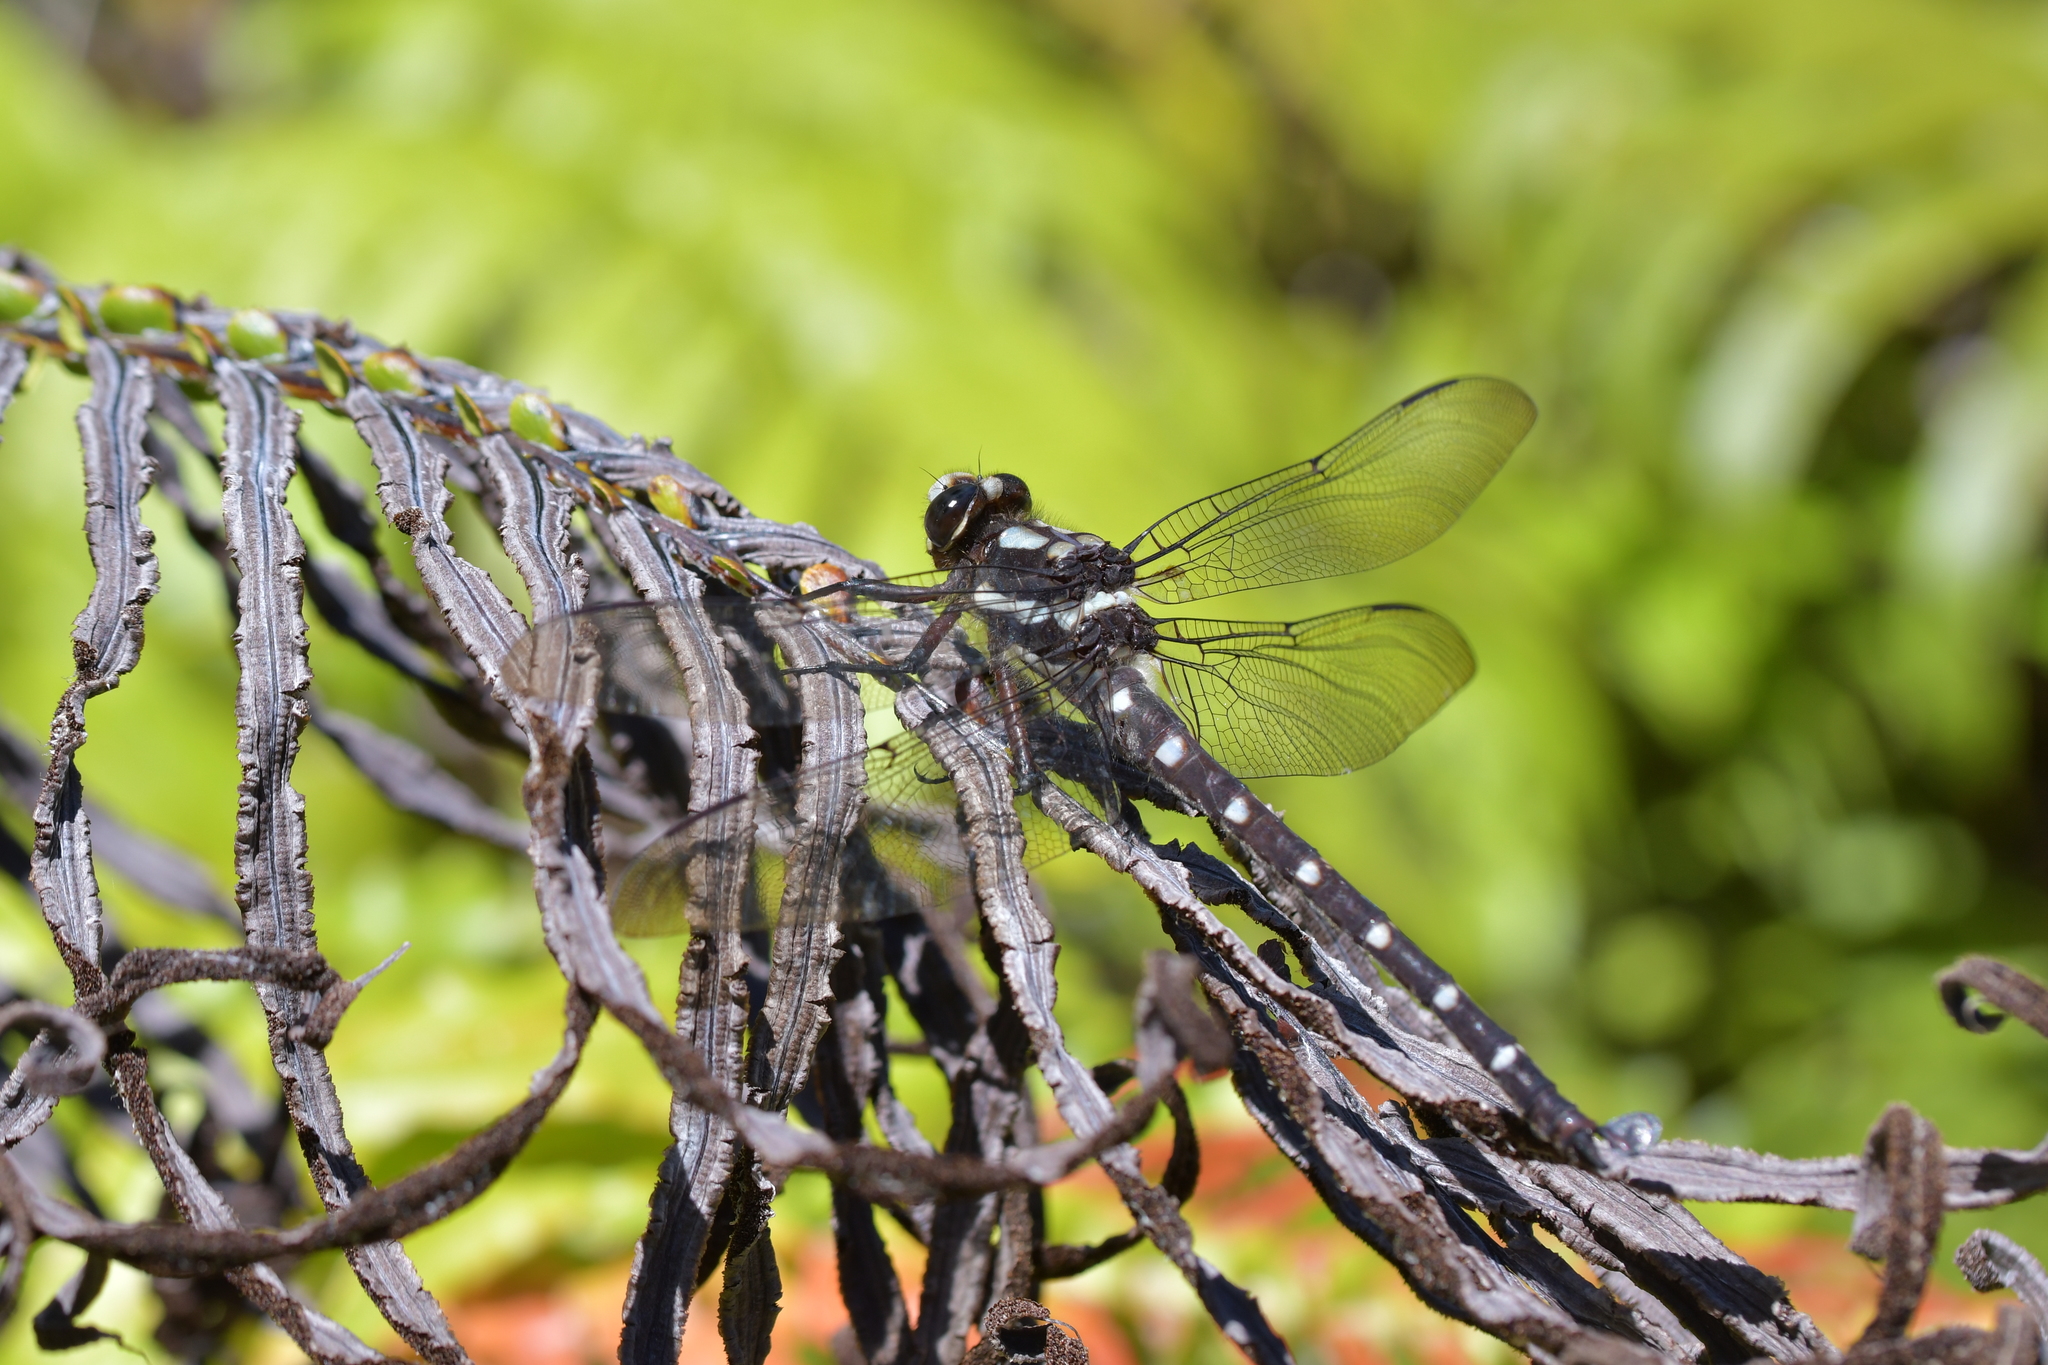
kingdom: Animalia
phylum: Arthropoda
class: Insecta
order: Odonata
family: Petaluridae
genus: Uropetala
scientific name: Uropetala carovei
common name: Bush giant dragonfly
